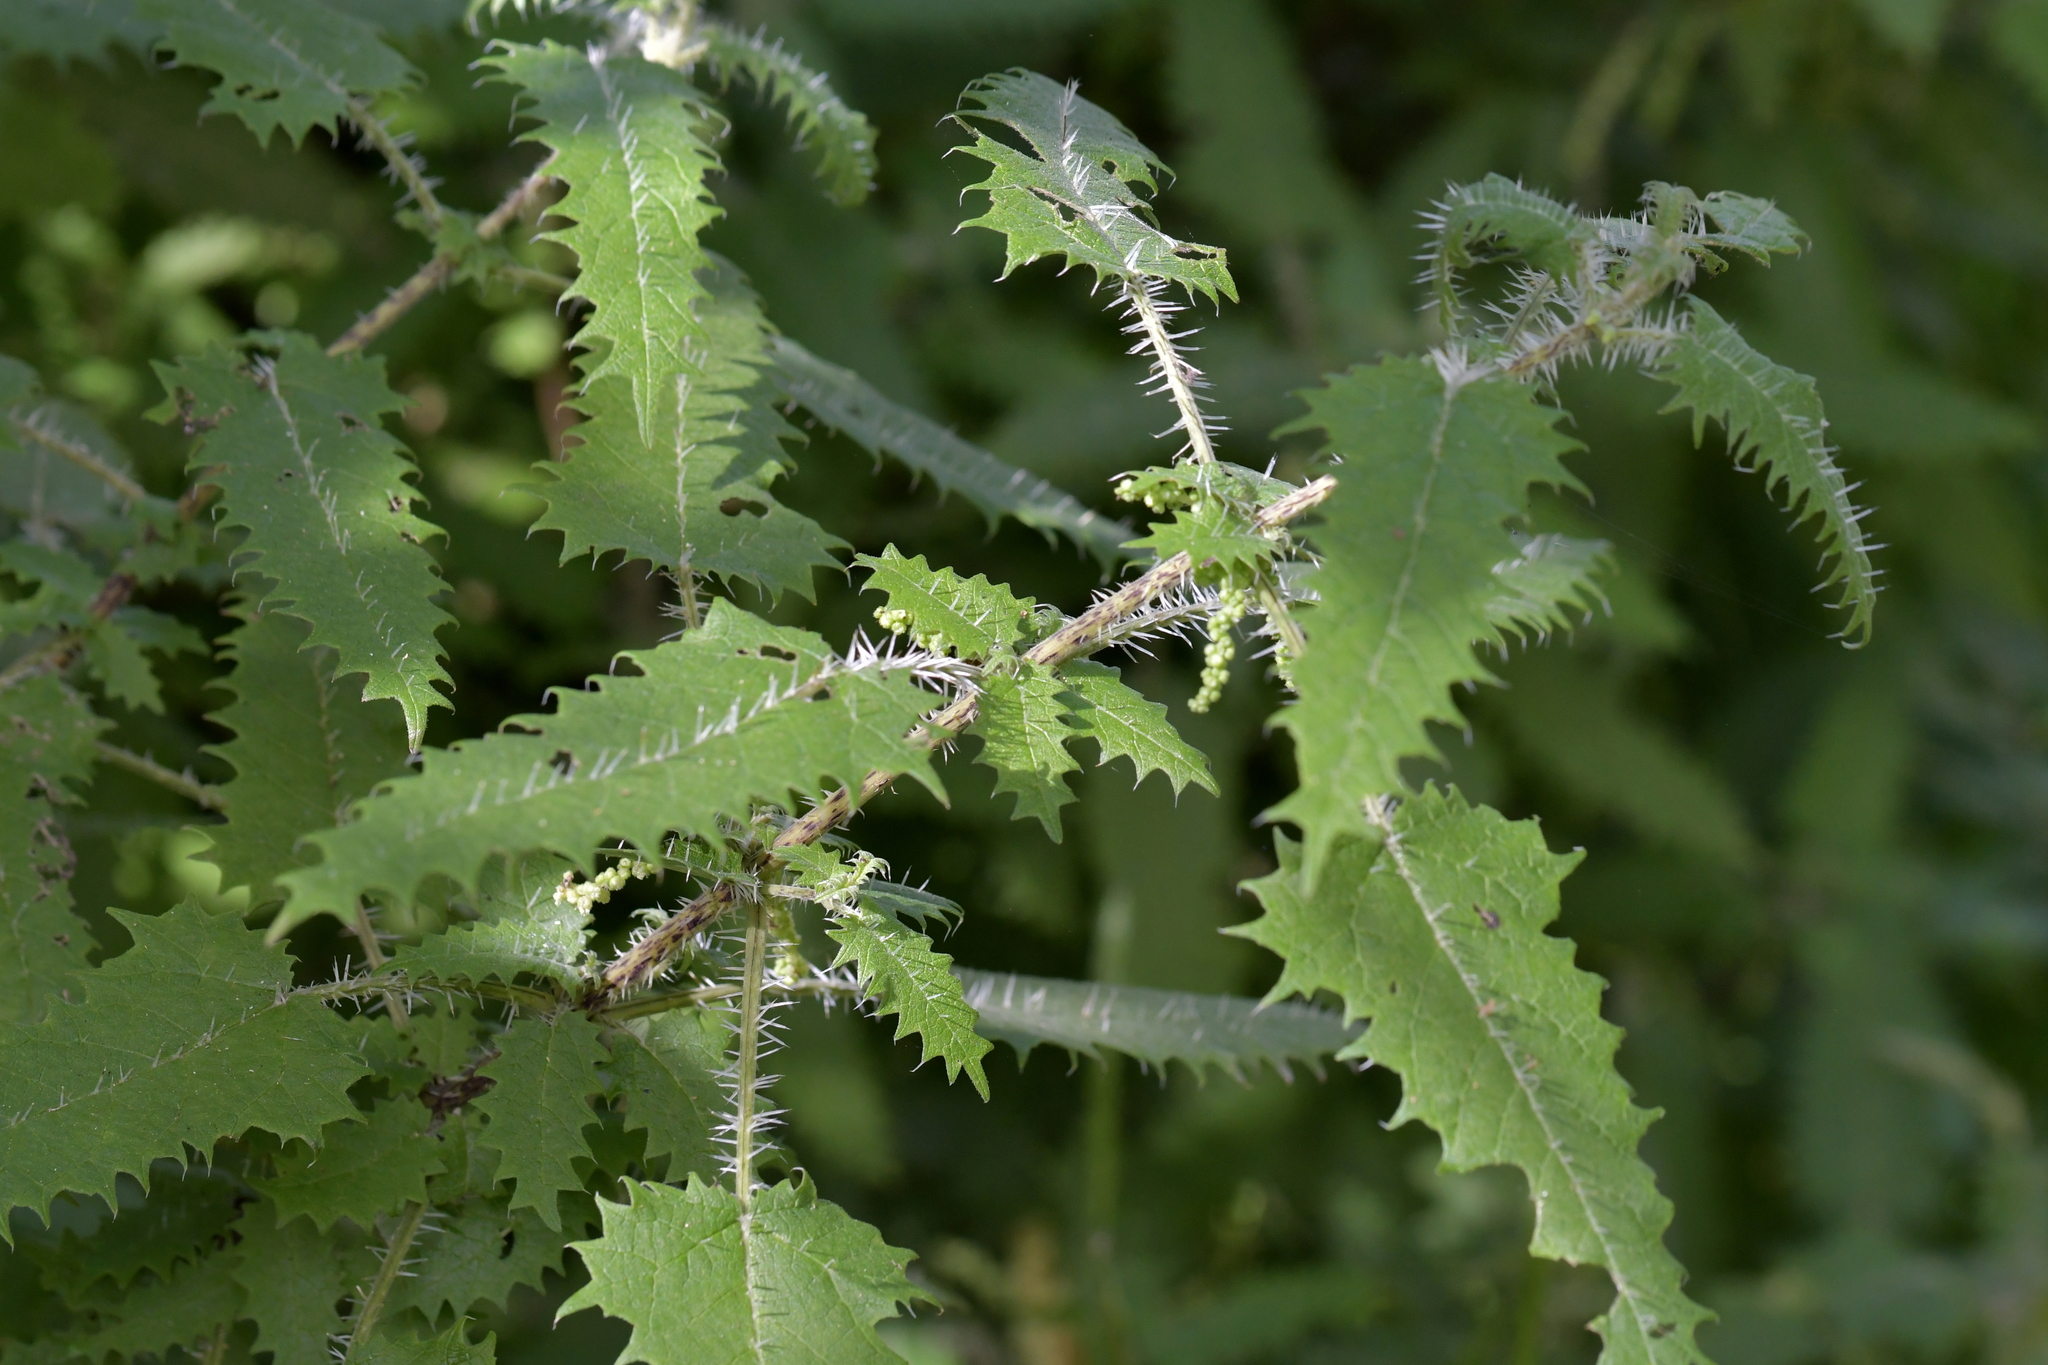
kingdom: Plantae
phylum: Tracheophyta
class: Magnoliopsida
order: Rosales
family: Urticaceae
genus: Urtica
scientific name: Urtica ferox
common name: Tree nettle
